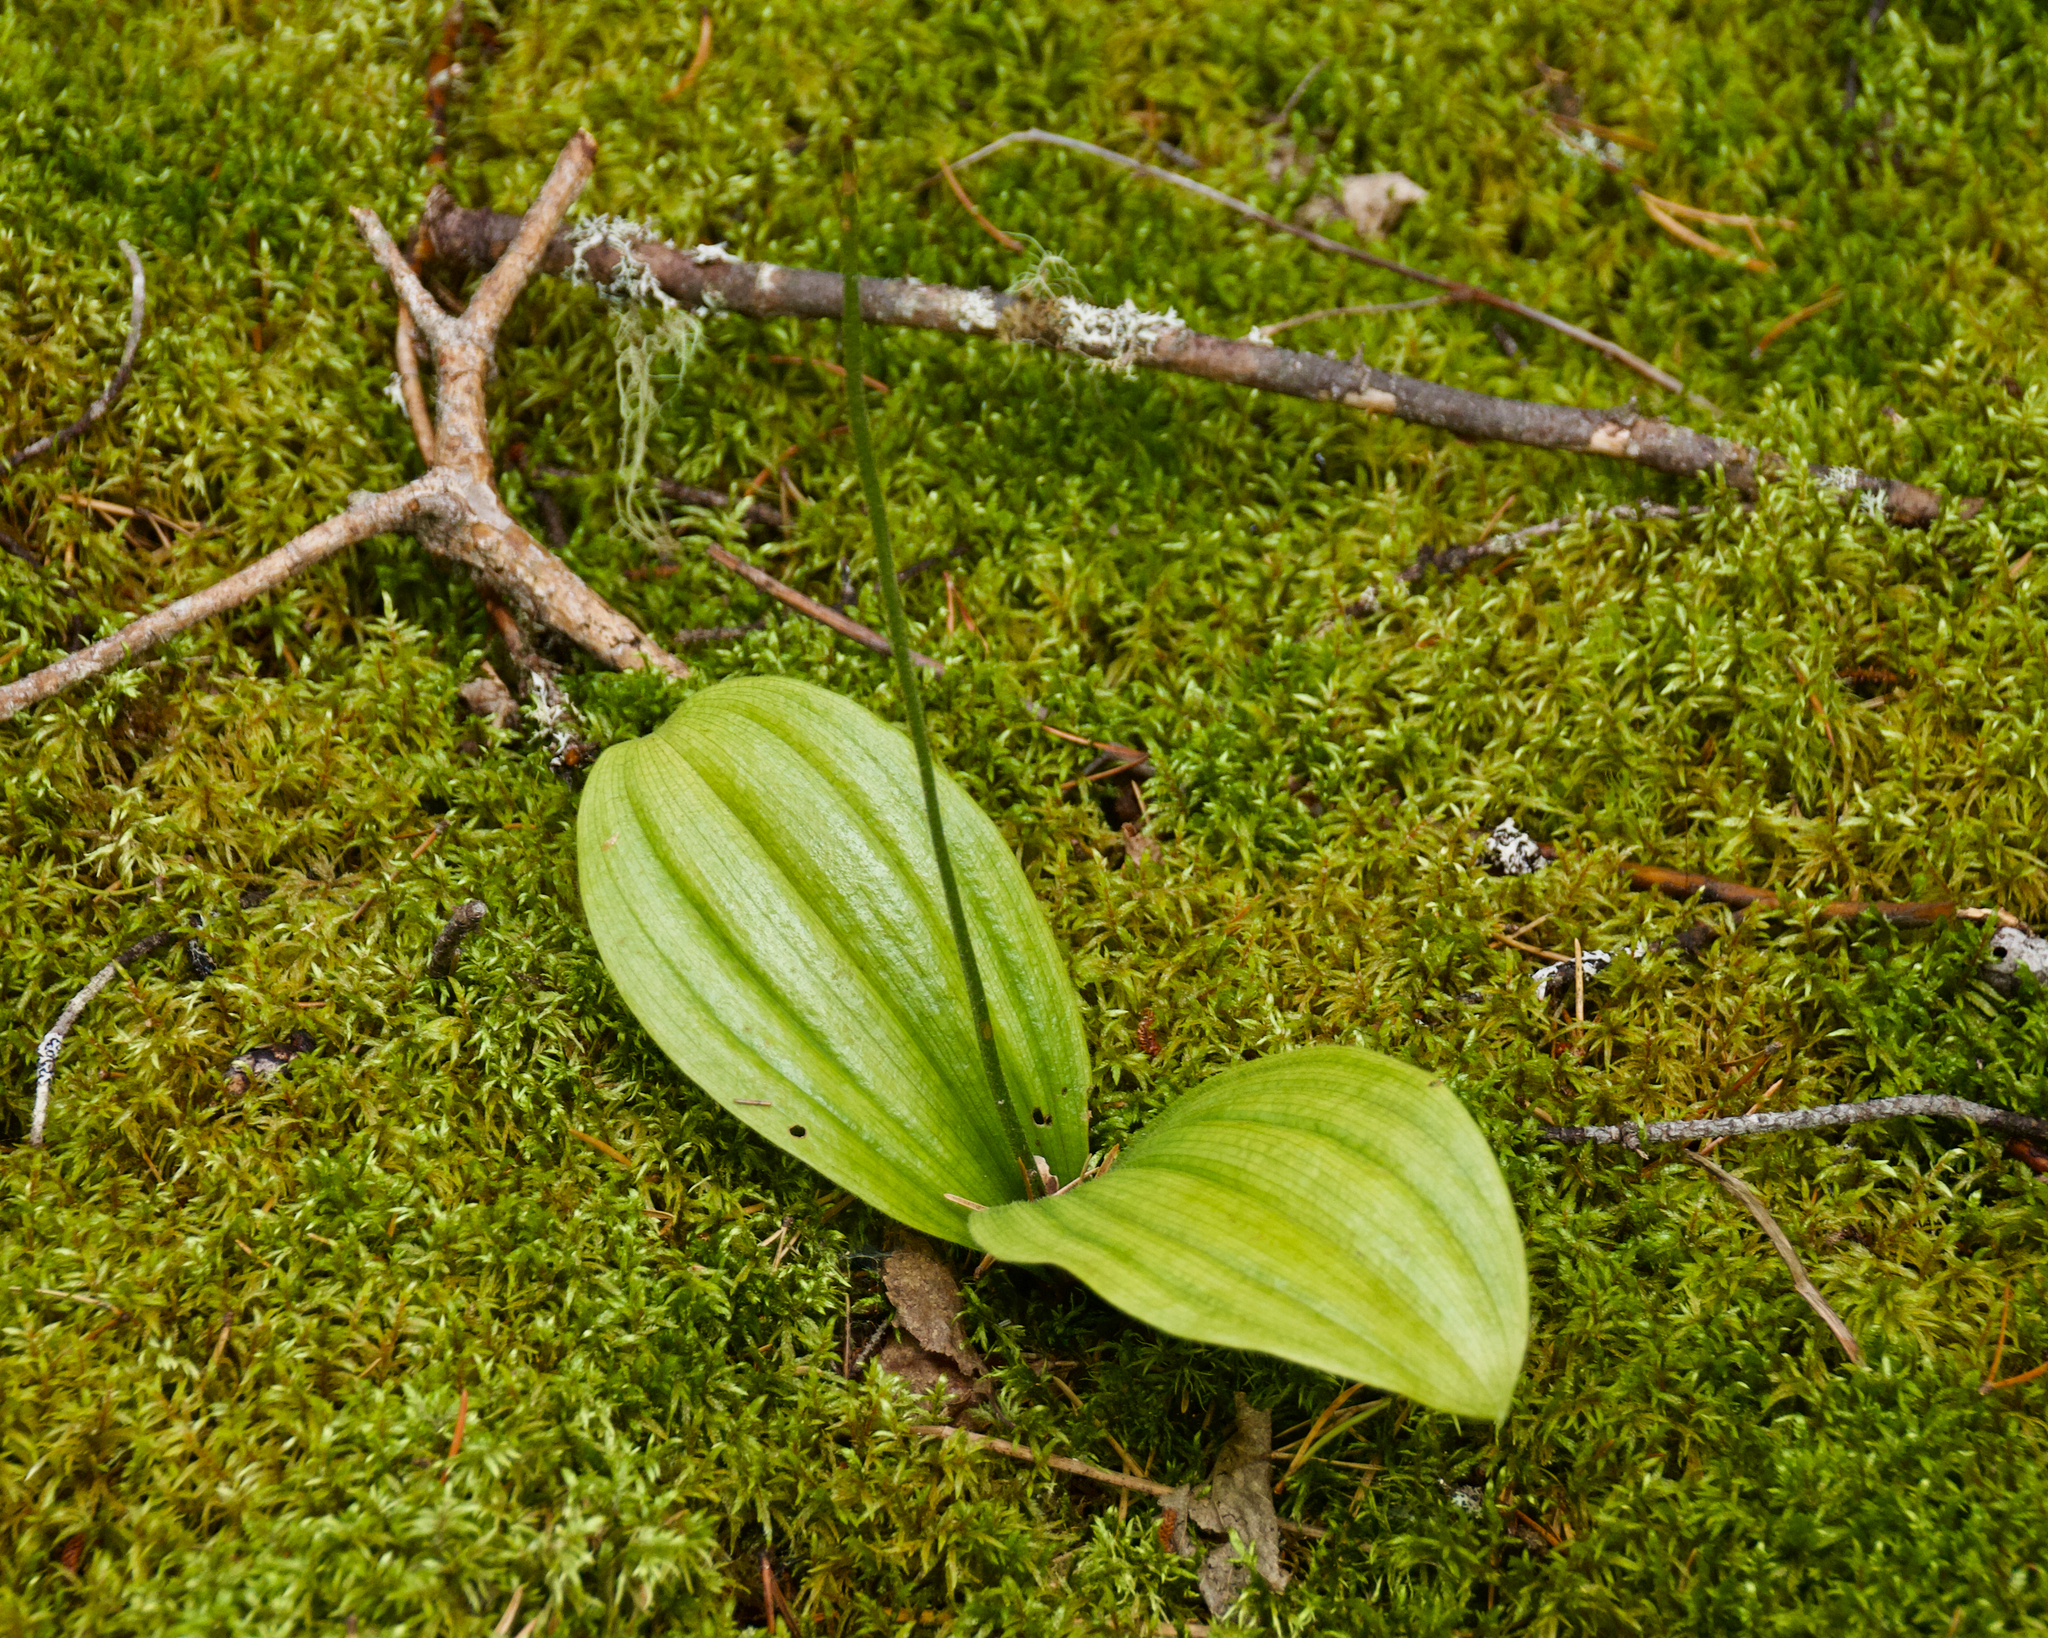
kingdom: Plantae
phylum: Tracheophyta
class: Liliopsida
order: Asparagales
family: Orchidaceae
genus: Cypripedium
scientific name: Cypripedium acaule
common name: Pink lady's-slipper
